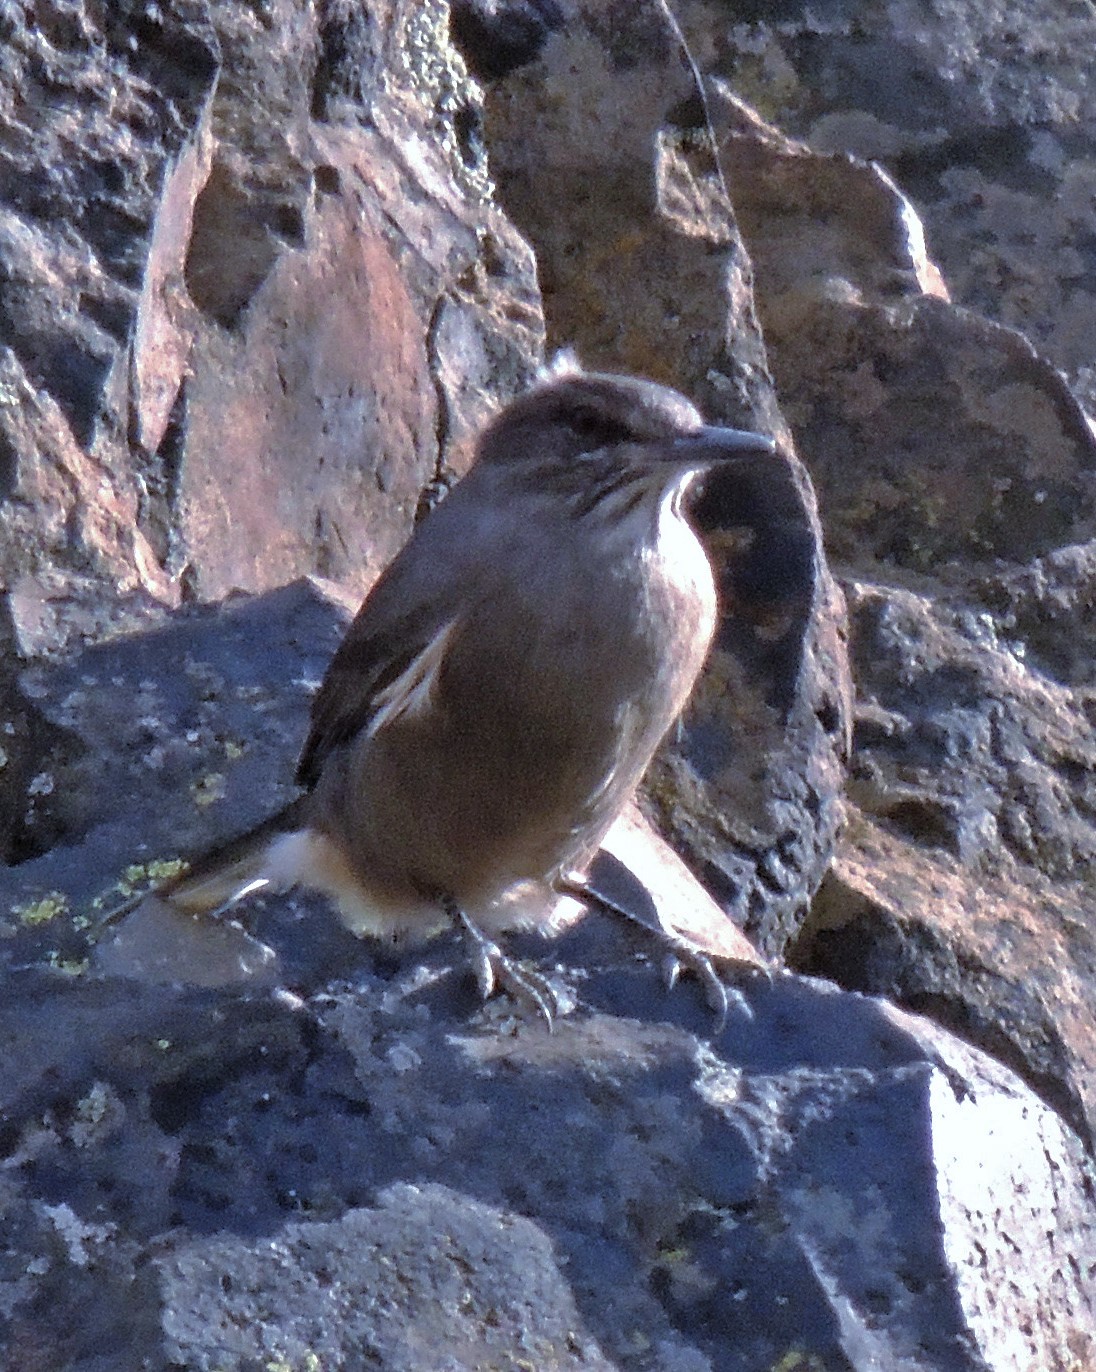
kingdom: Animalia
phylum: Chordata
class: Aves
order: Passeriformes
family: Tyrannidae
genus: Agriornis
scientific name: Agriornis montanus
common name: Black-billed shrike-tyrant
